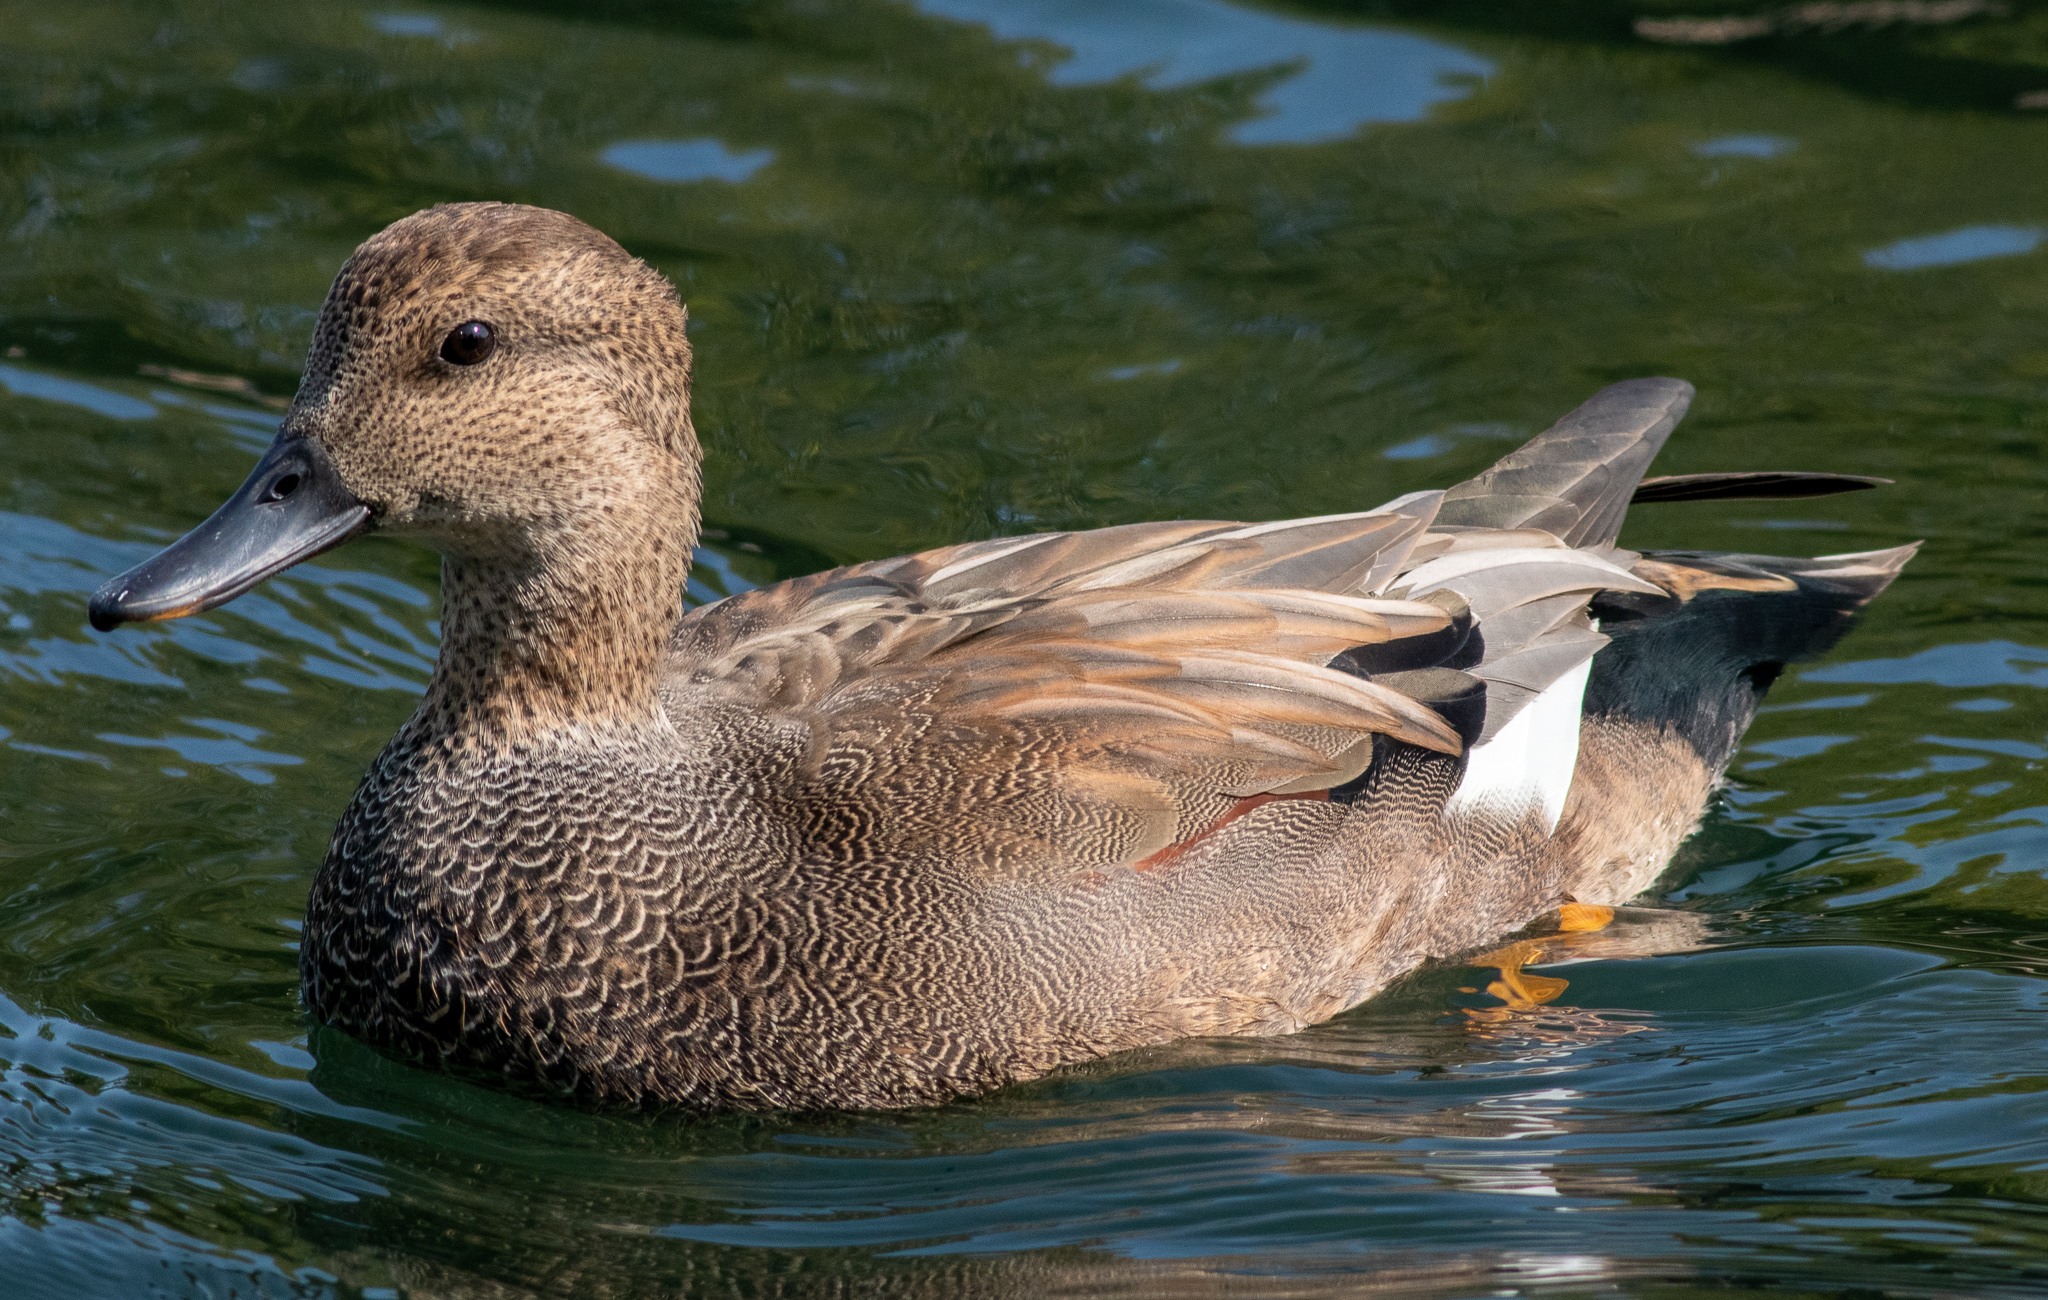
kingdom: Animalia
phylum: Chordata
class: Aves
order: Anseriformes
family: Anatidae
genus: Mareca
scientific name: Mareca strepera
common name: Gadwall
